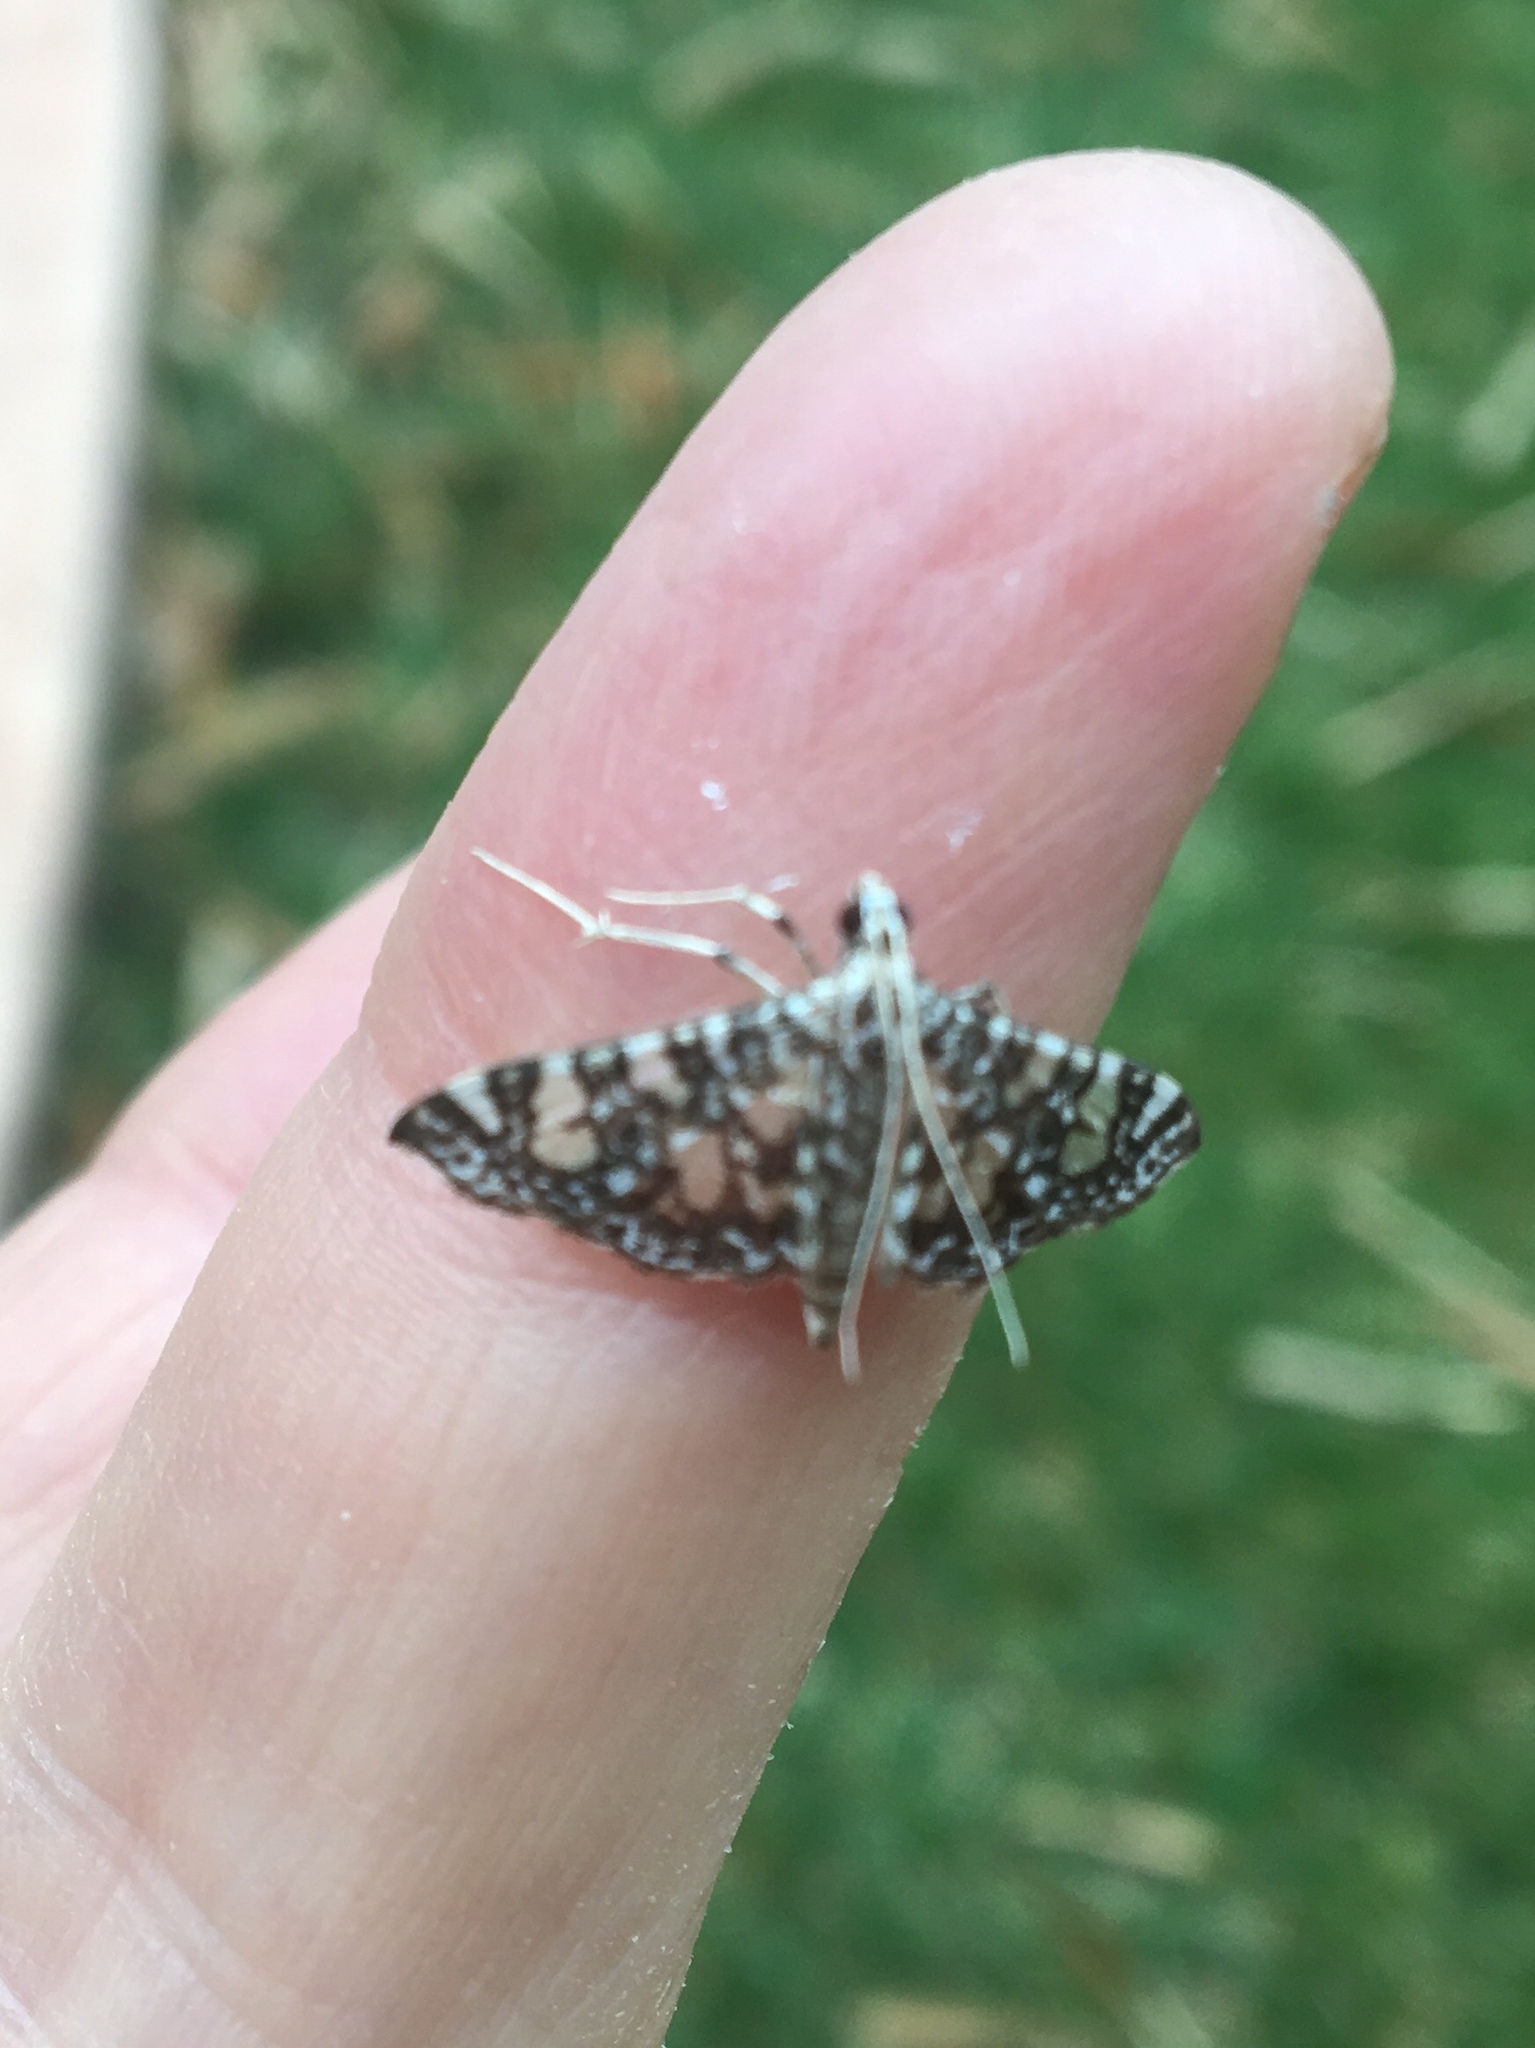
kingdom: Animalia
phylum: Arthropoda
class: Insecta
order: Lepidoptera
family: Crambidae
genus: Glyphodes
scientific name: Glyphodes onychinalis
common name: Swan plant moth
